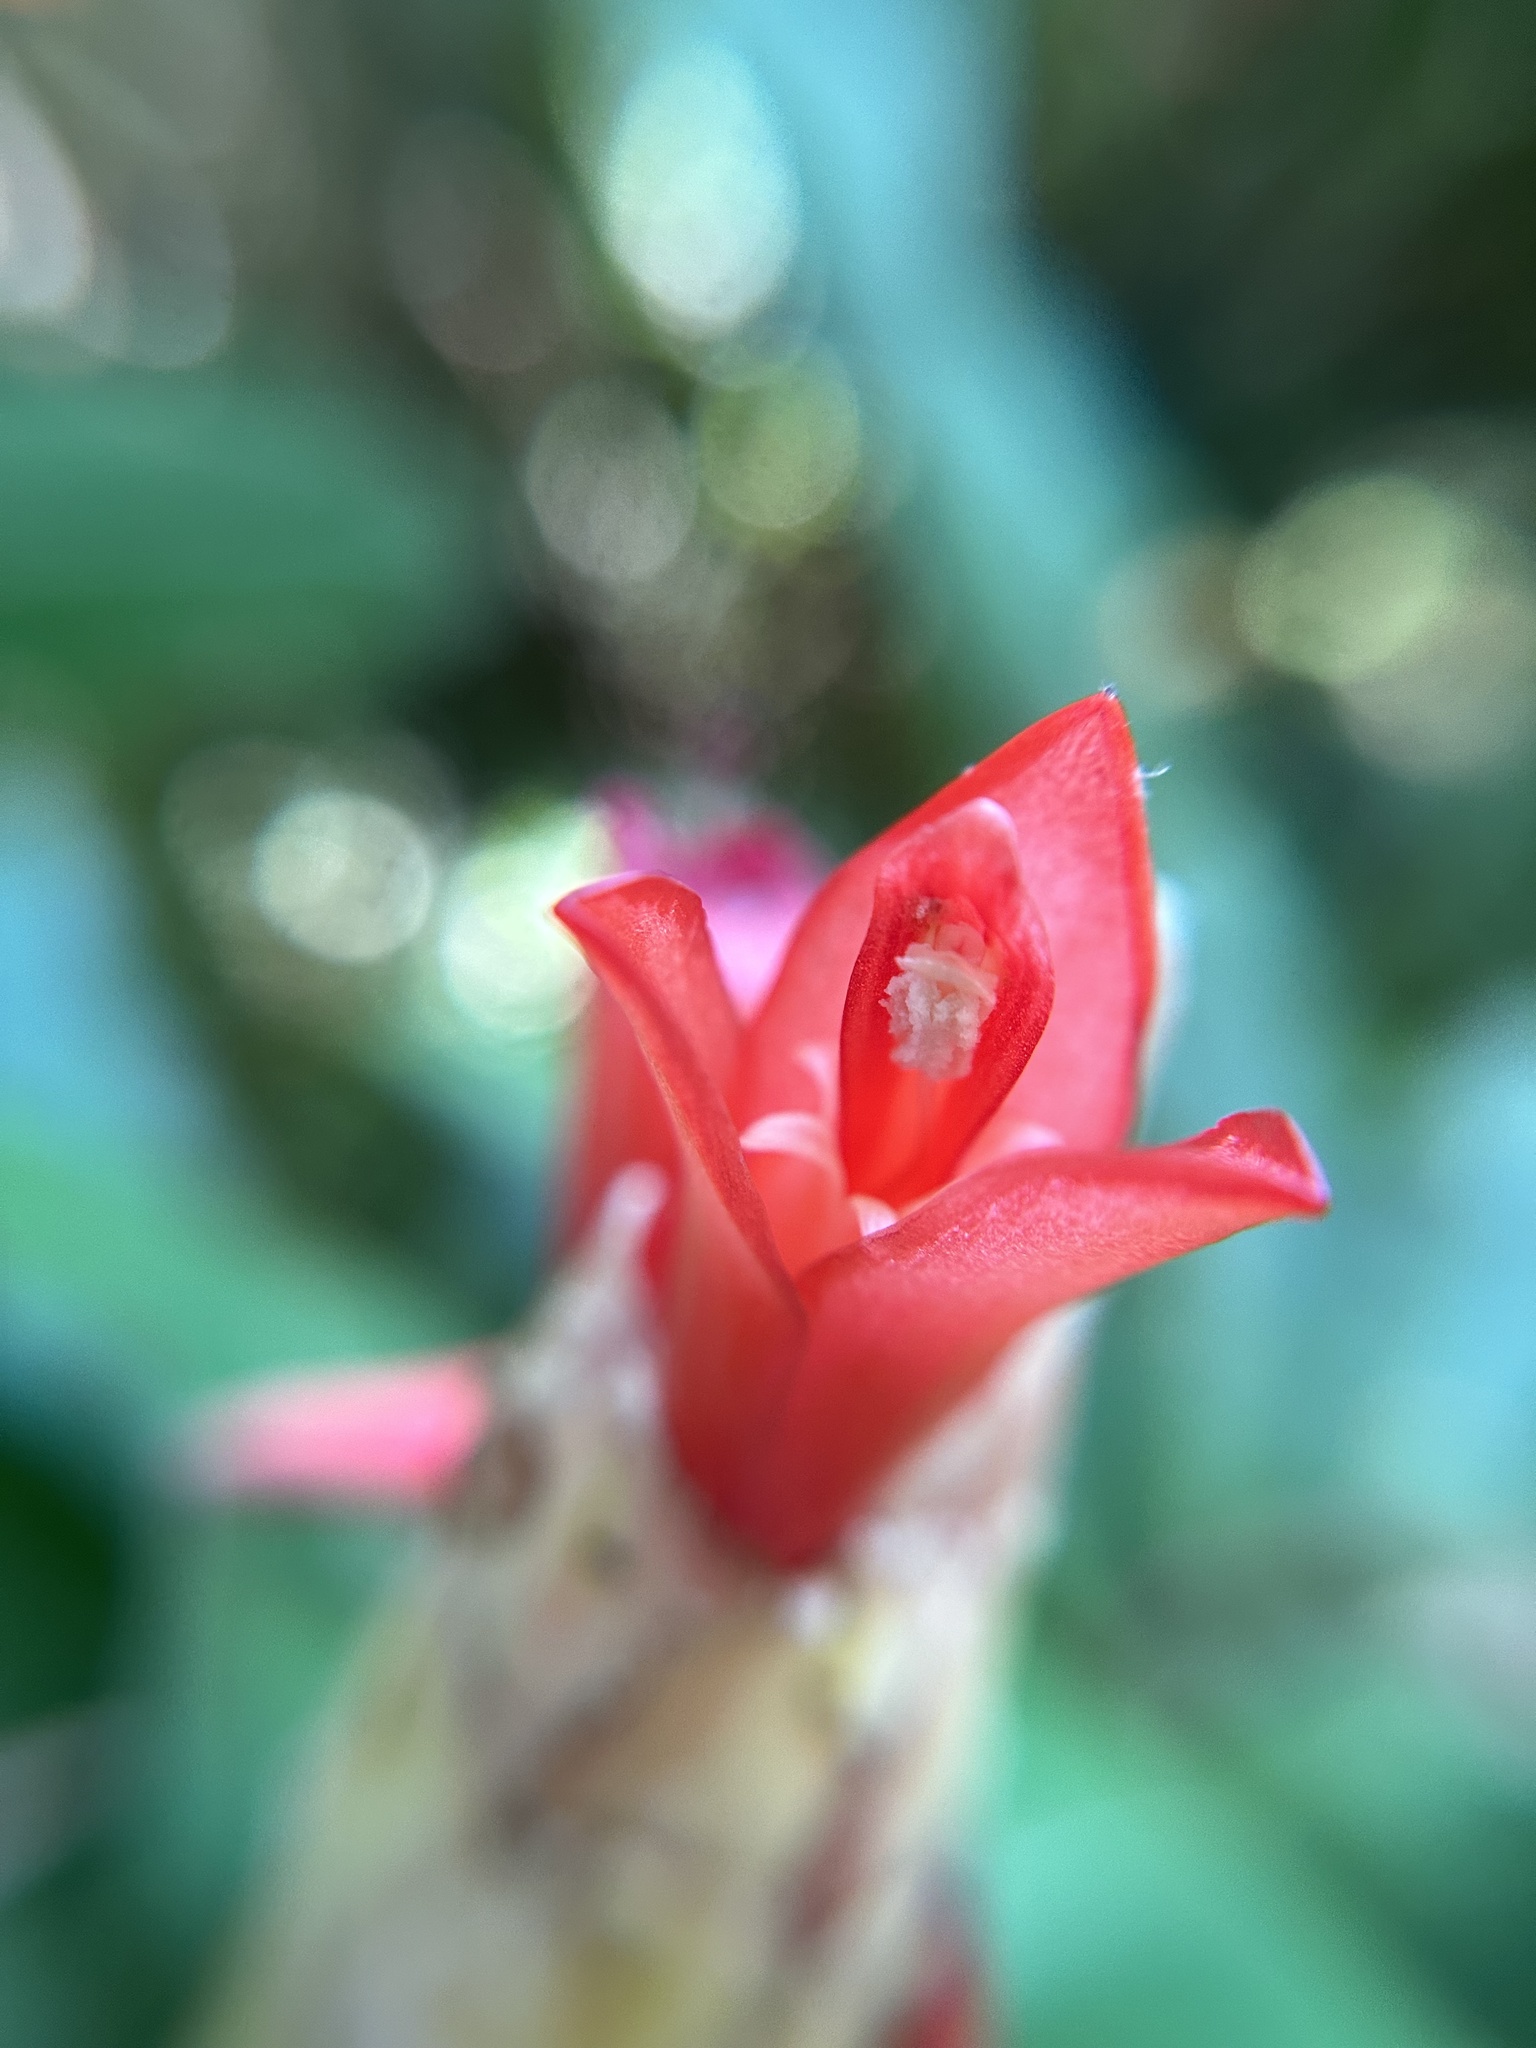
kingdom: Plantae
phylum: Tracheophyta
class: Liliopsida
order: Zingiberales
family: Costaceae
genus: Costus
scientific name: Costus pulverulentus
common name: Spiral ginger
